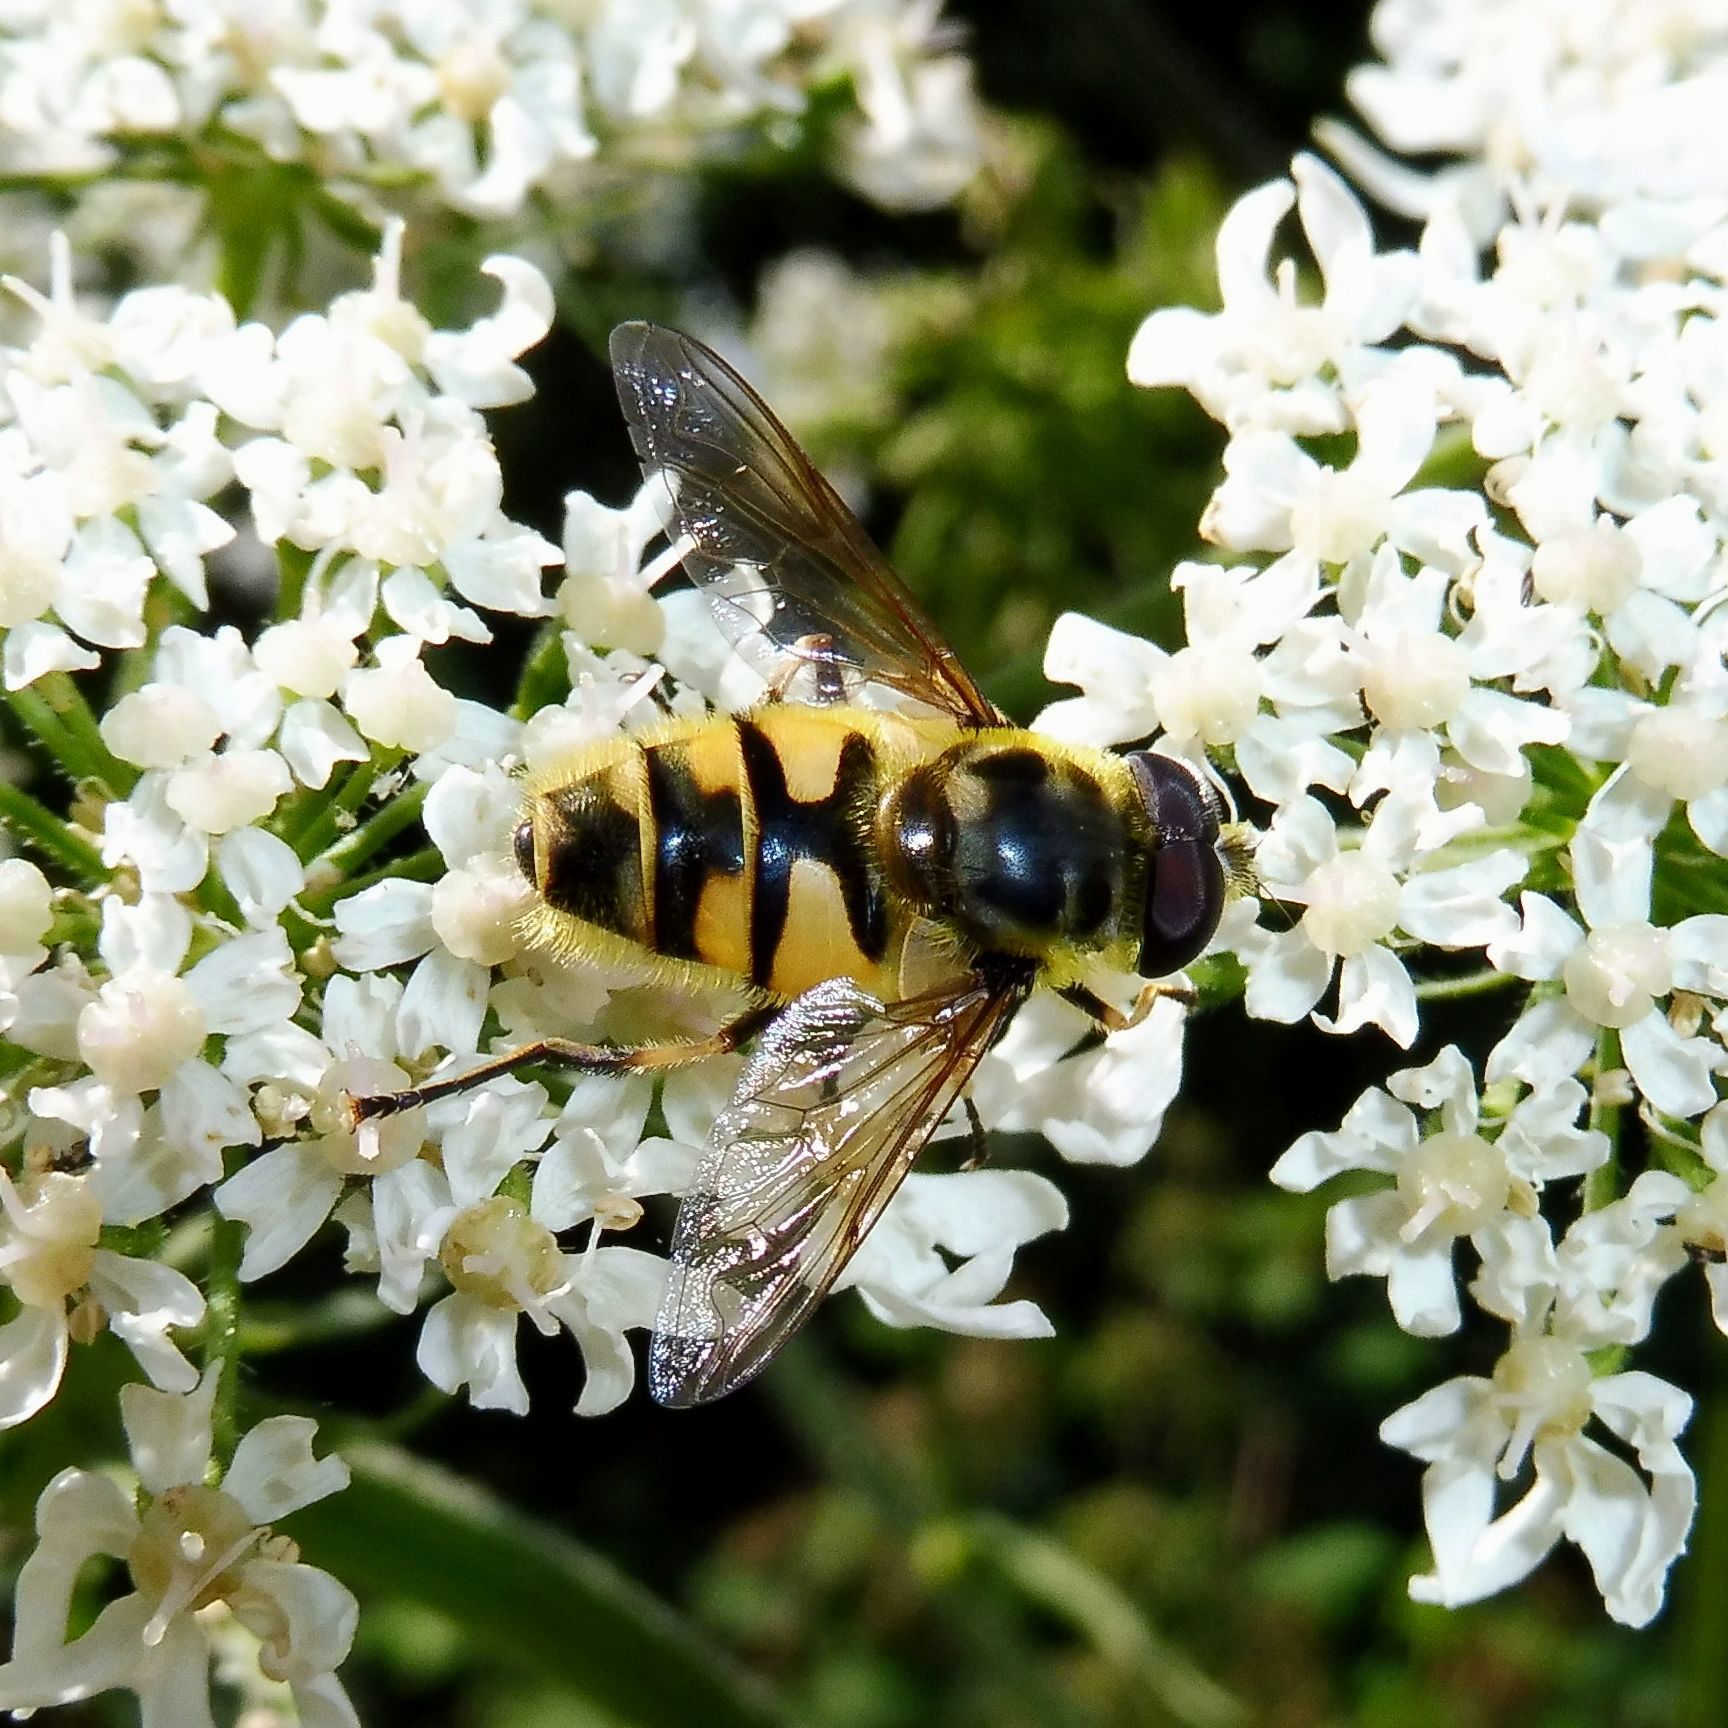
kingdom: Animalia
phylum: Arthropoda
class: Insecta
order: Diptera
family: Syrphidae
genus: Myathropa
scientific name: Myathropa florea
